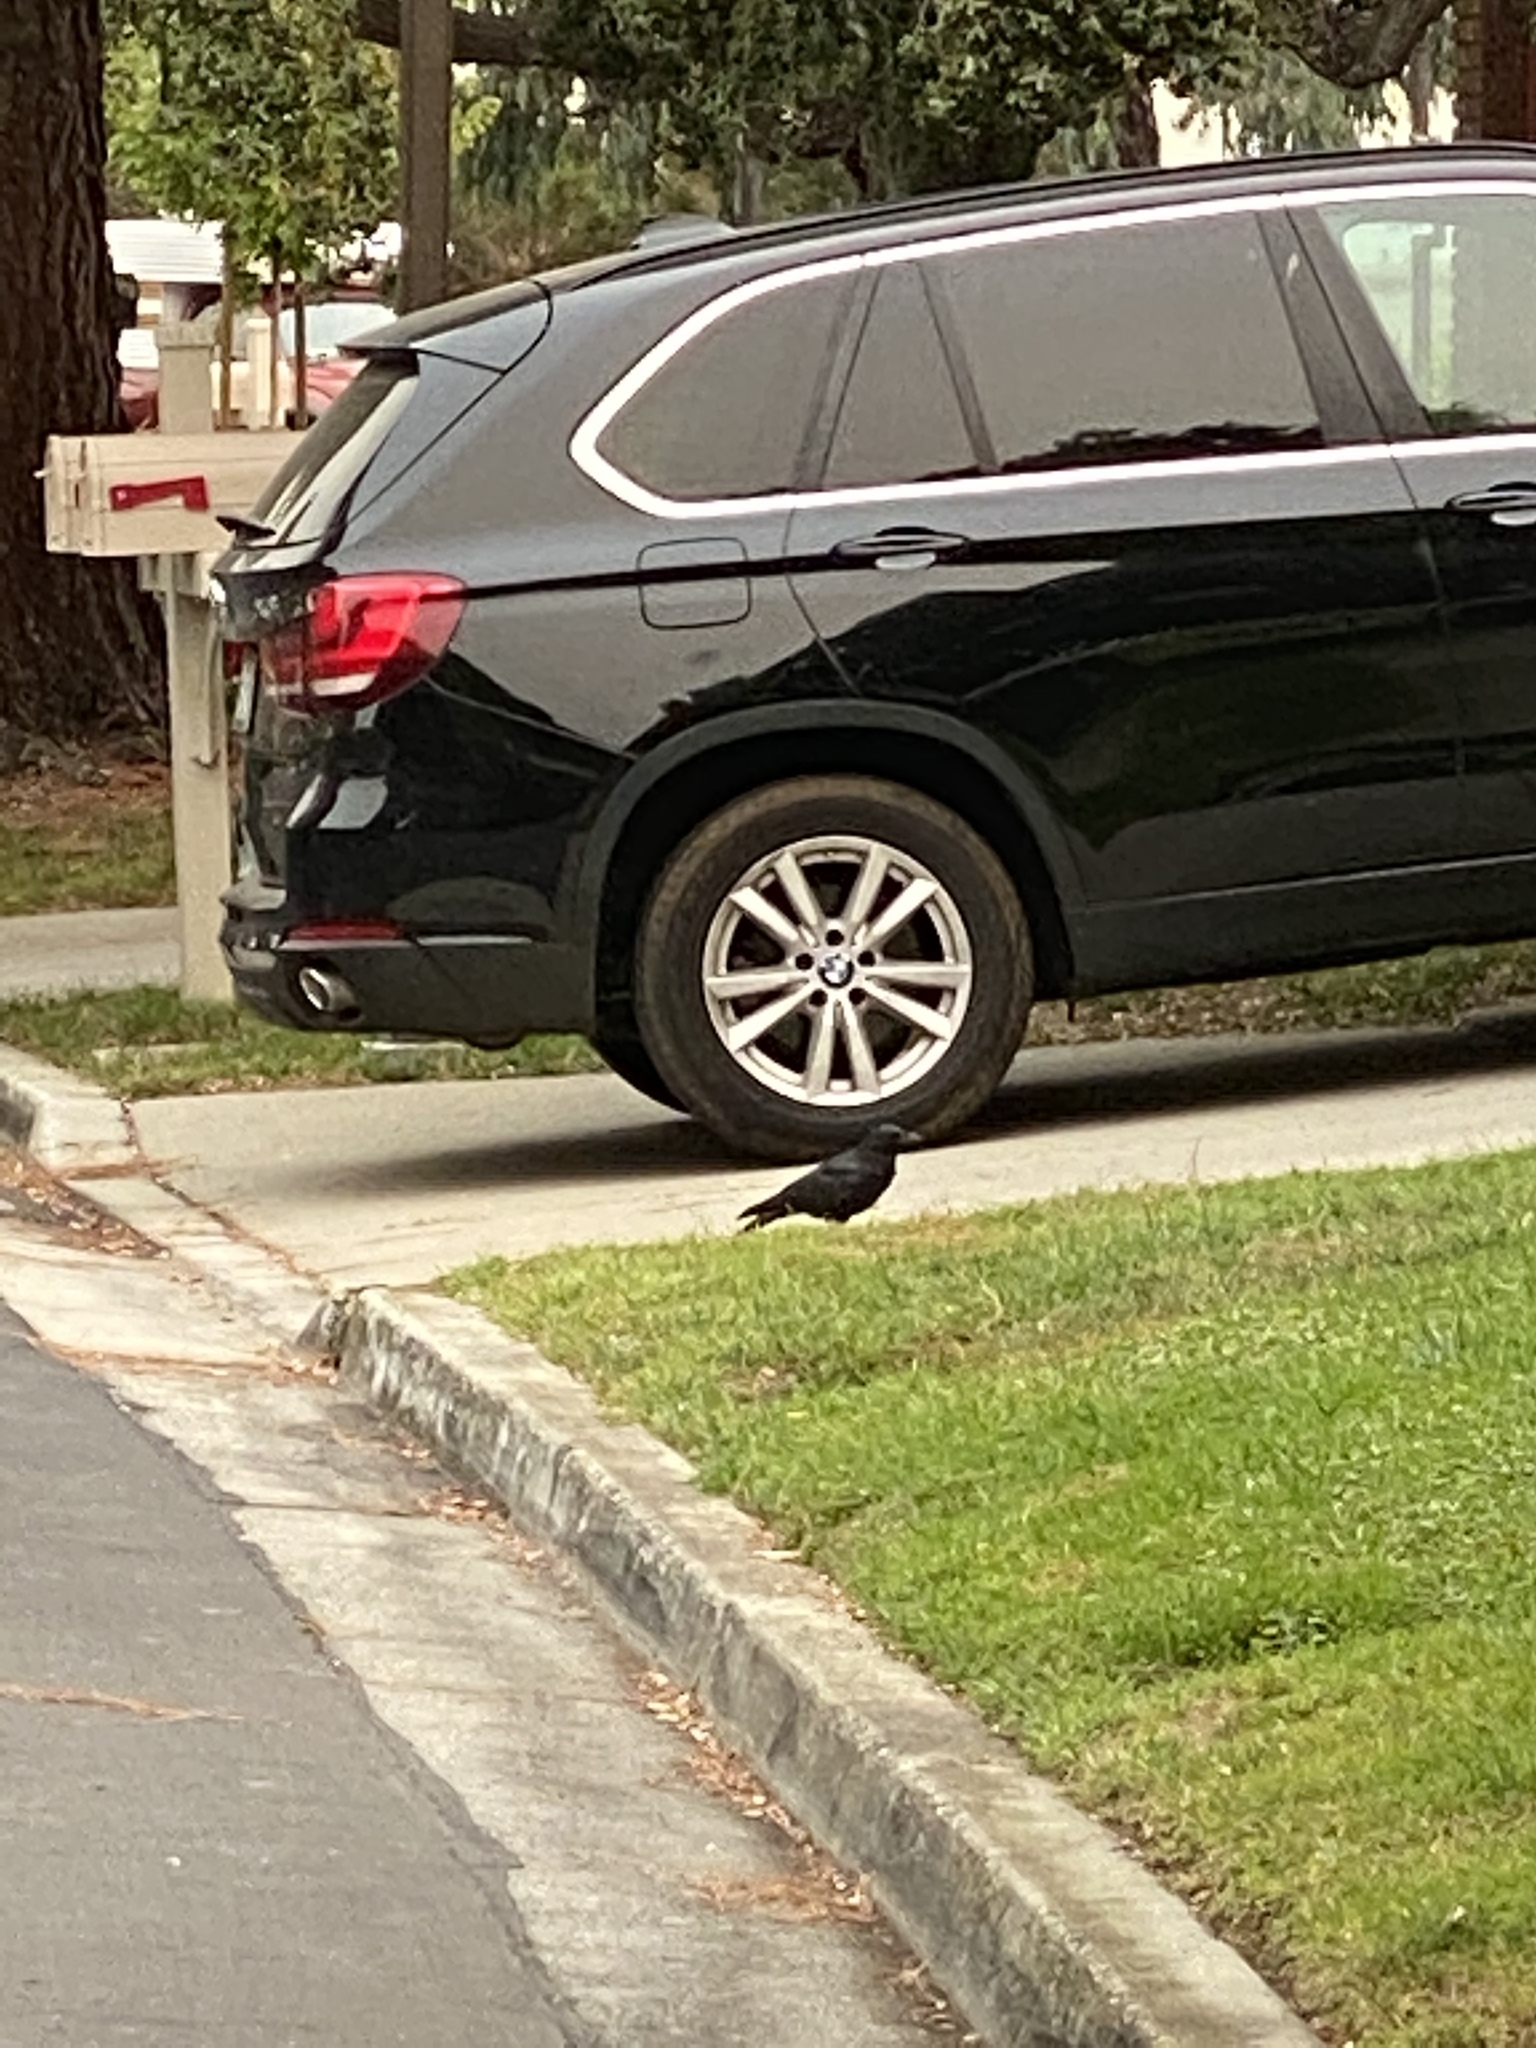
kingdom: Animalia
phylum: Chordata
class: Aves
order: Passeriformes
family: Corvidae
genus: Corvus
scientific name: Corvus brachyrhynchos
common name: American crow
